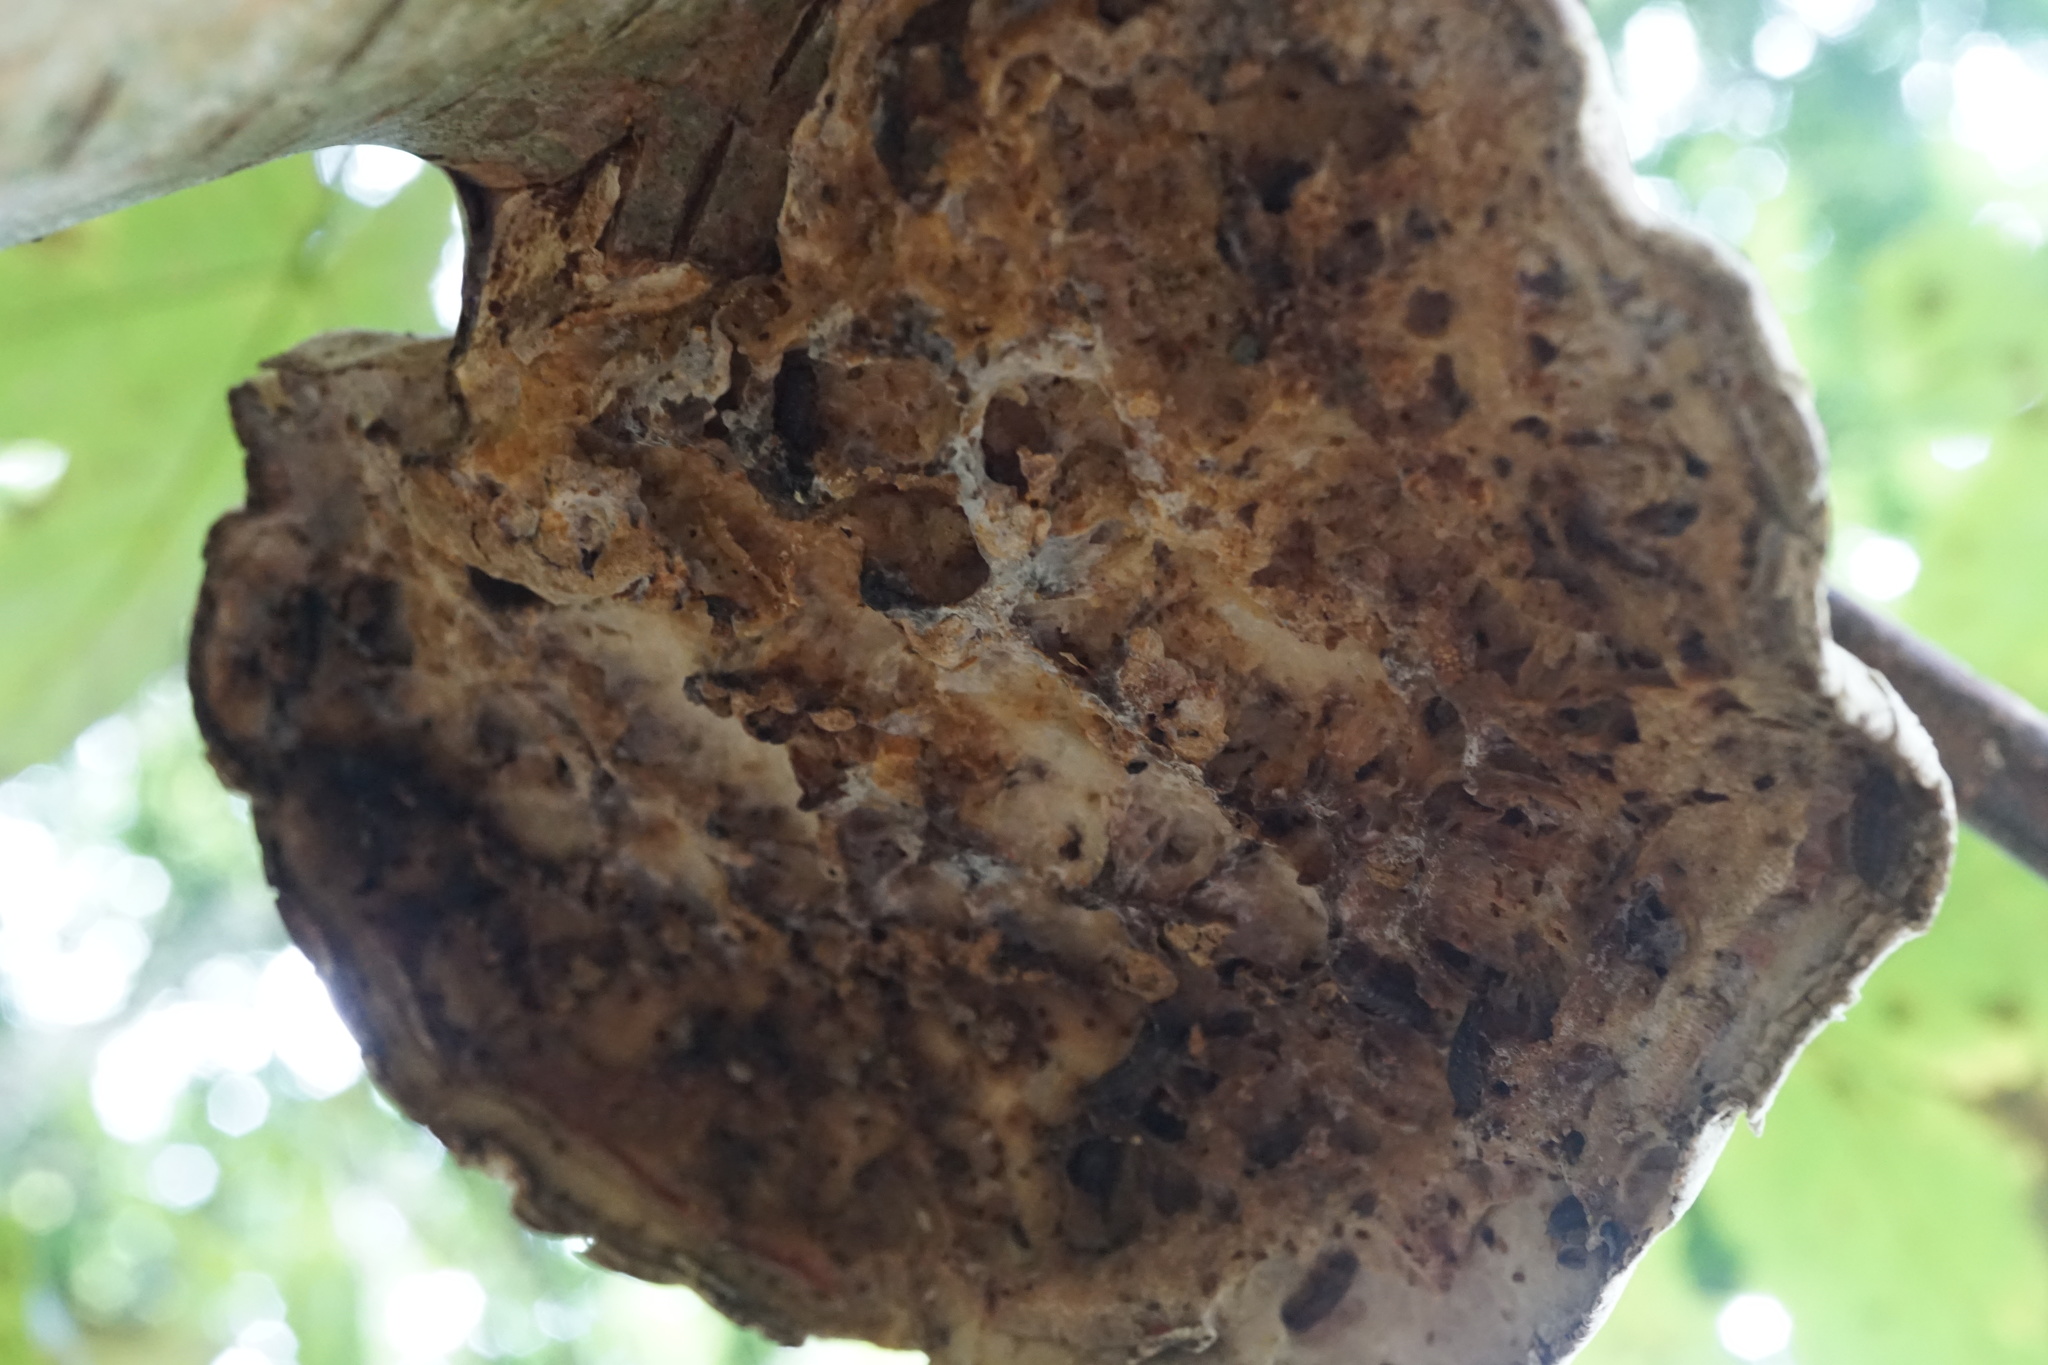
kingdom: Fungi
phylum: Basidiomycota
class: Agaricomycetes
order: Polyporales
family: Fomitopsidaceae
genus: Fomitopsis
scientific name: Fomitopsis betulina
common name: Birch polypore
